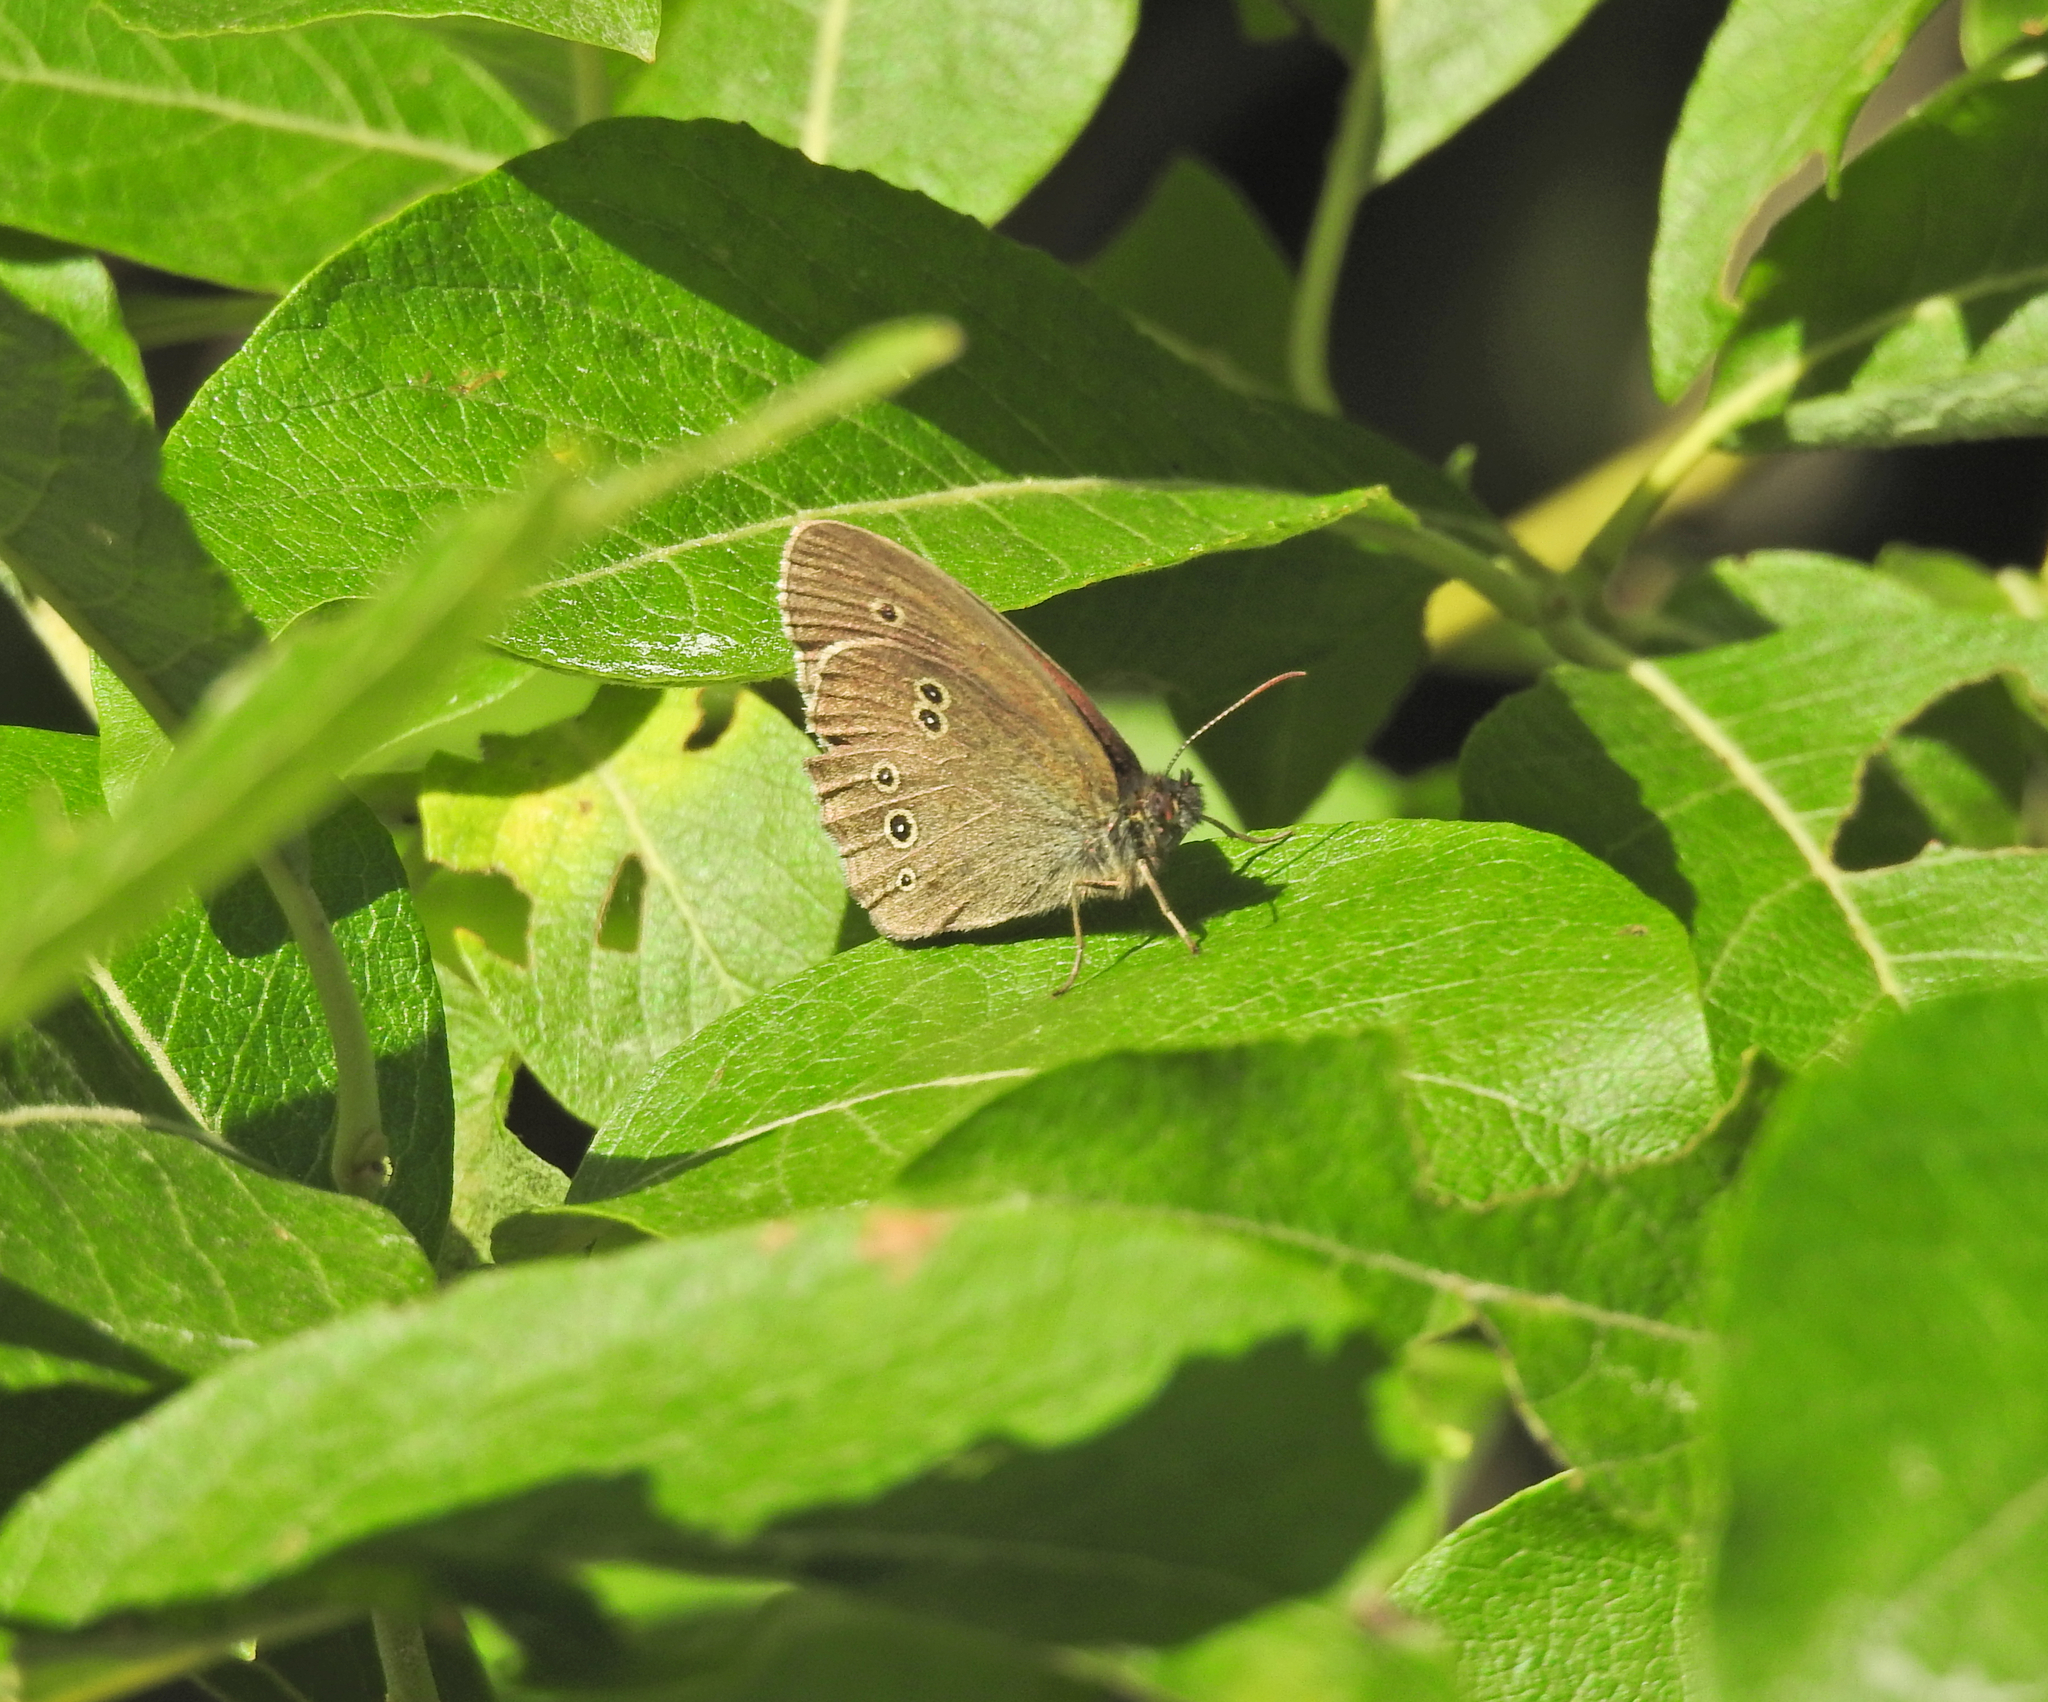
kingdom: Animalia
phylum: Arthropoda
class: Insecta
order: Lepidoptera
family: Nymphalidae
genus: Aphantopus
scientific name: Aphantopus hyperantus
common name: Ringlet
